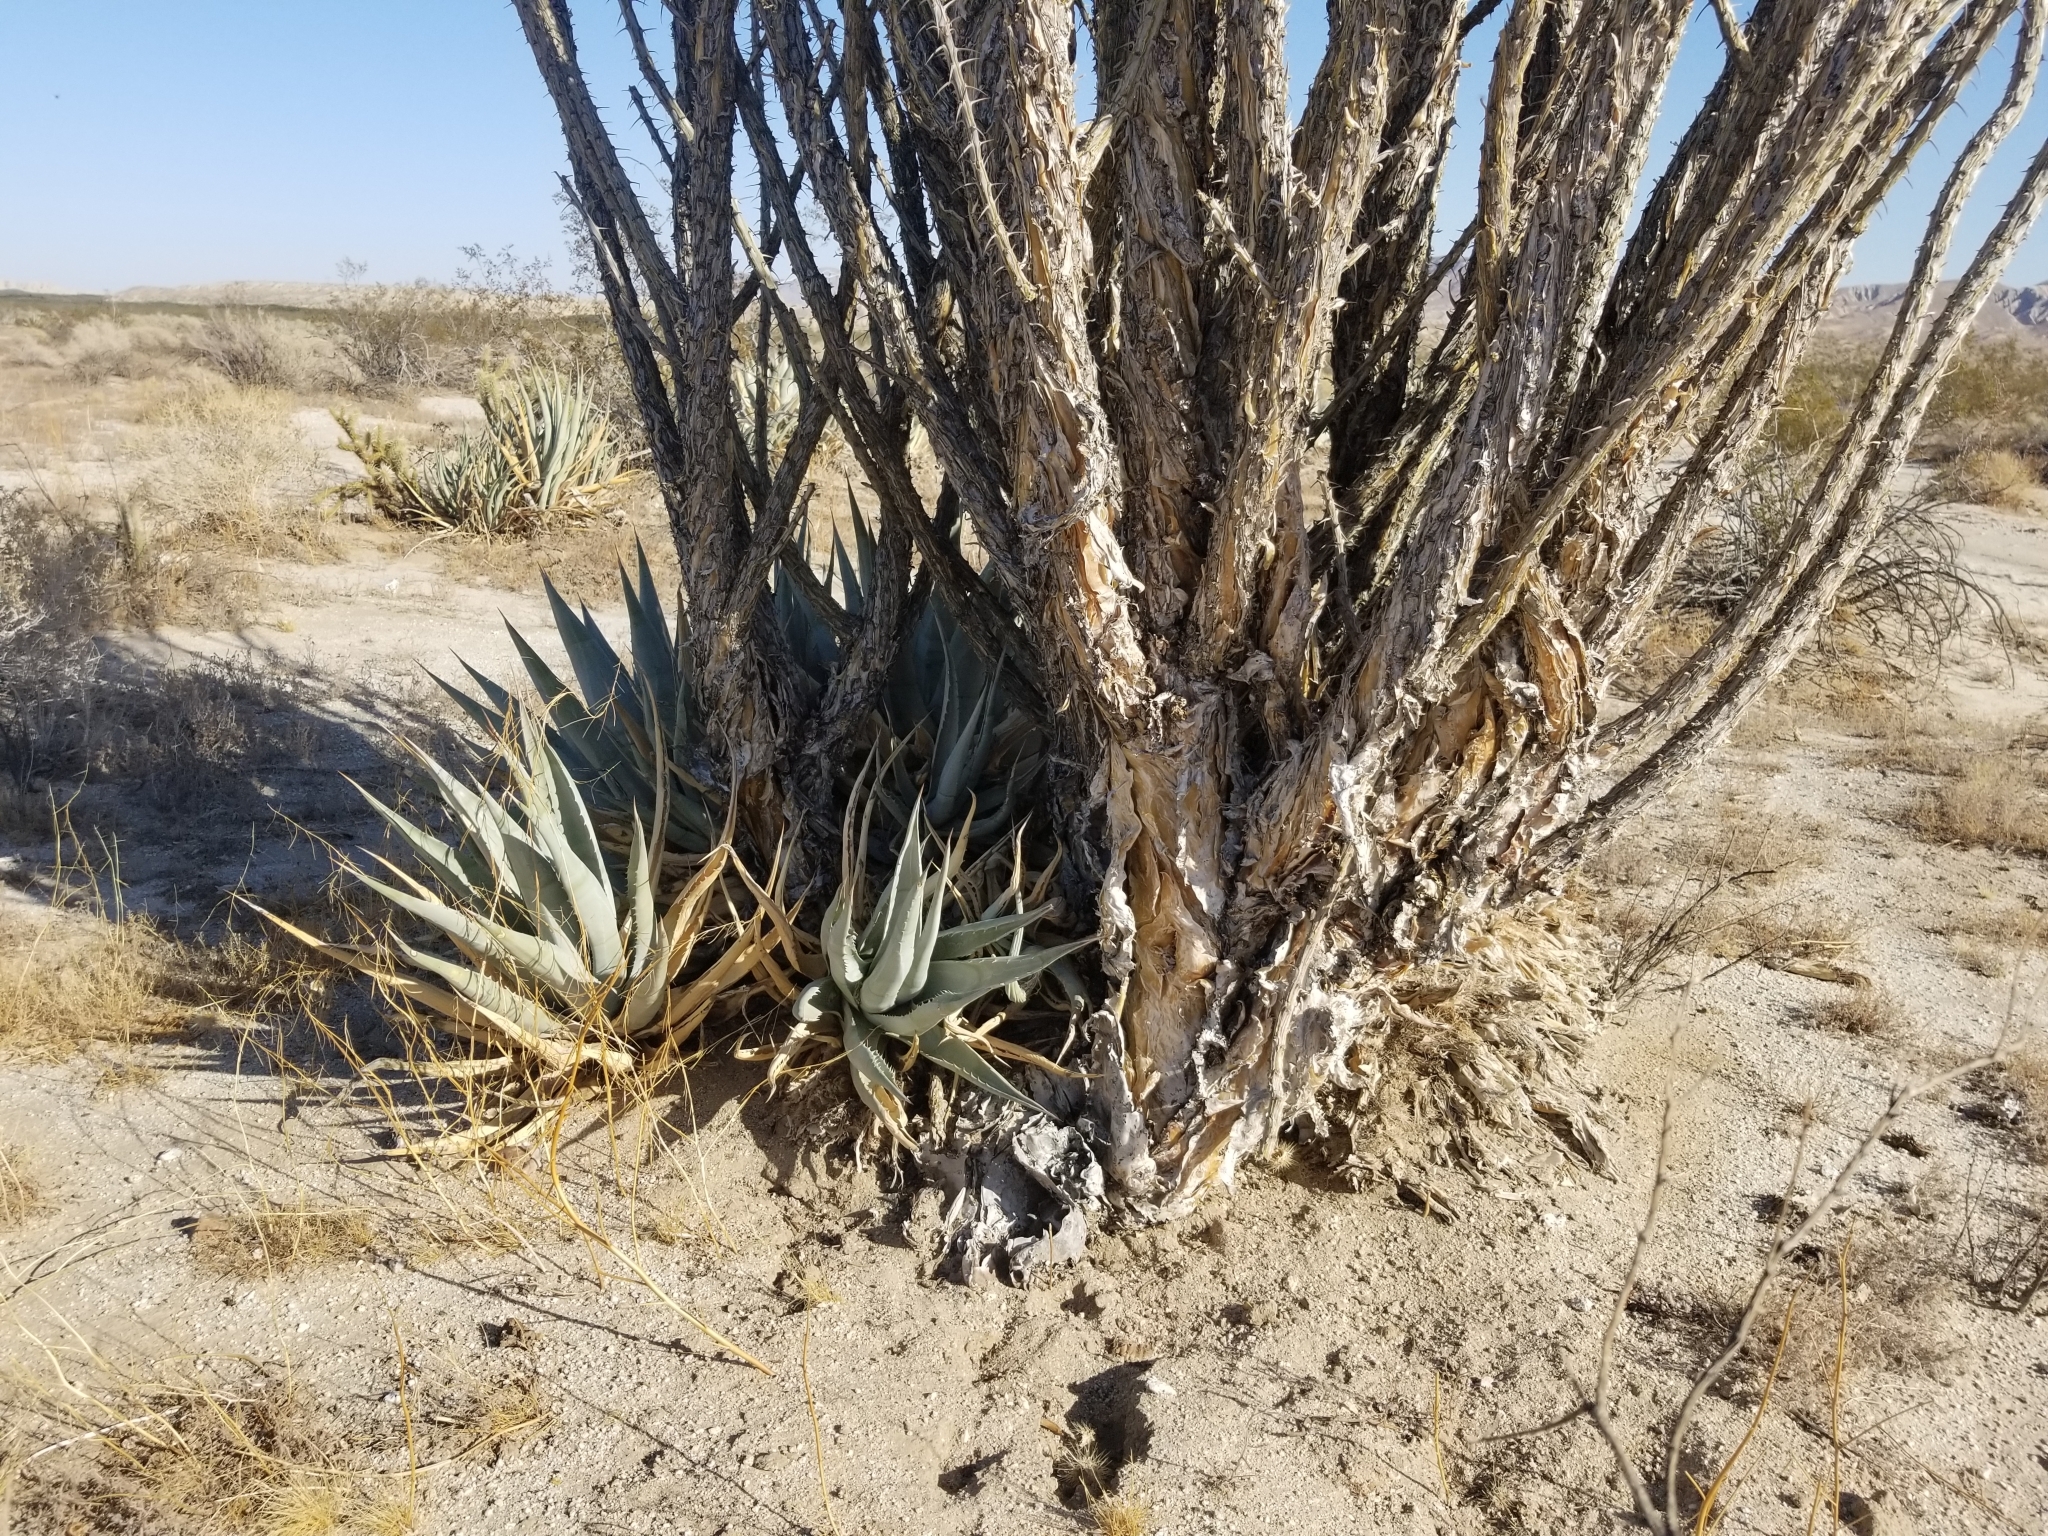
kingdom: Plantae
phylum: Tracheophyta
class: Magnoliopsida
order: Ericales
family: Fouquieriaceae
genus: Fouquieria
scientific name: Fouquieria splendens
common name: Vine-cactus
